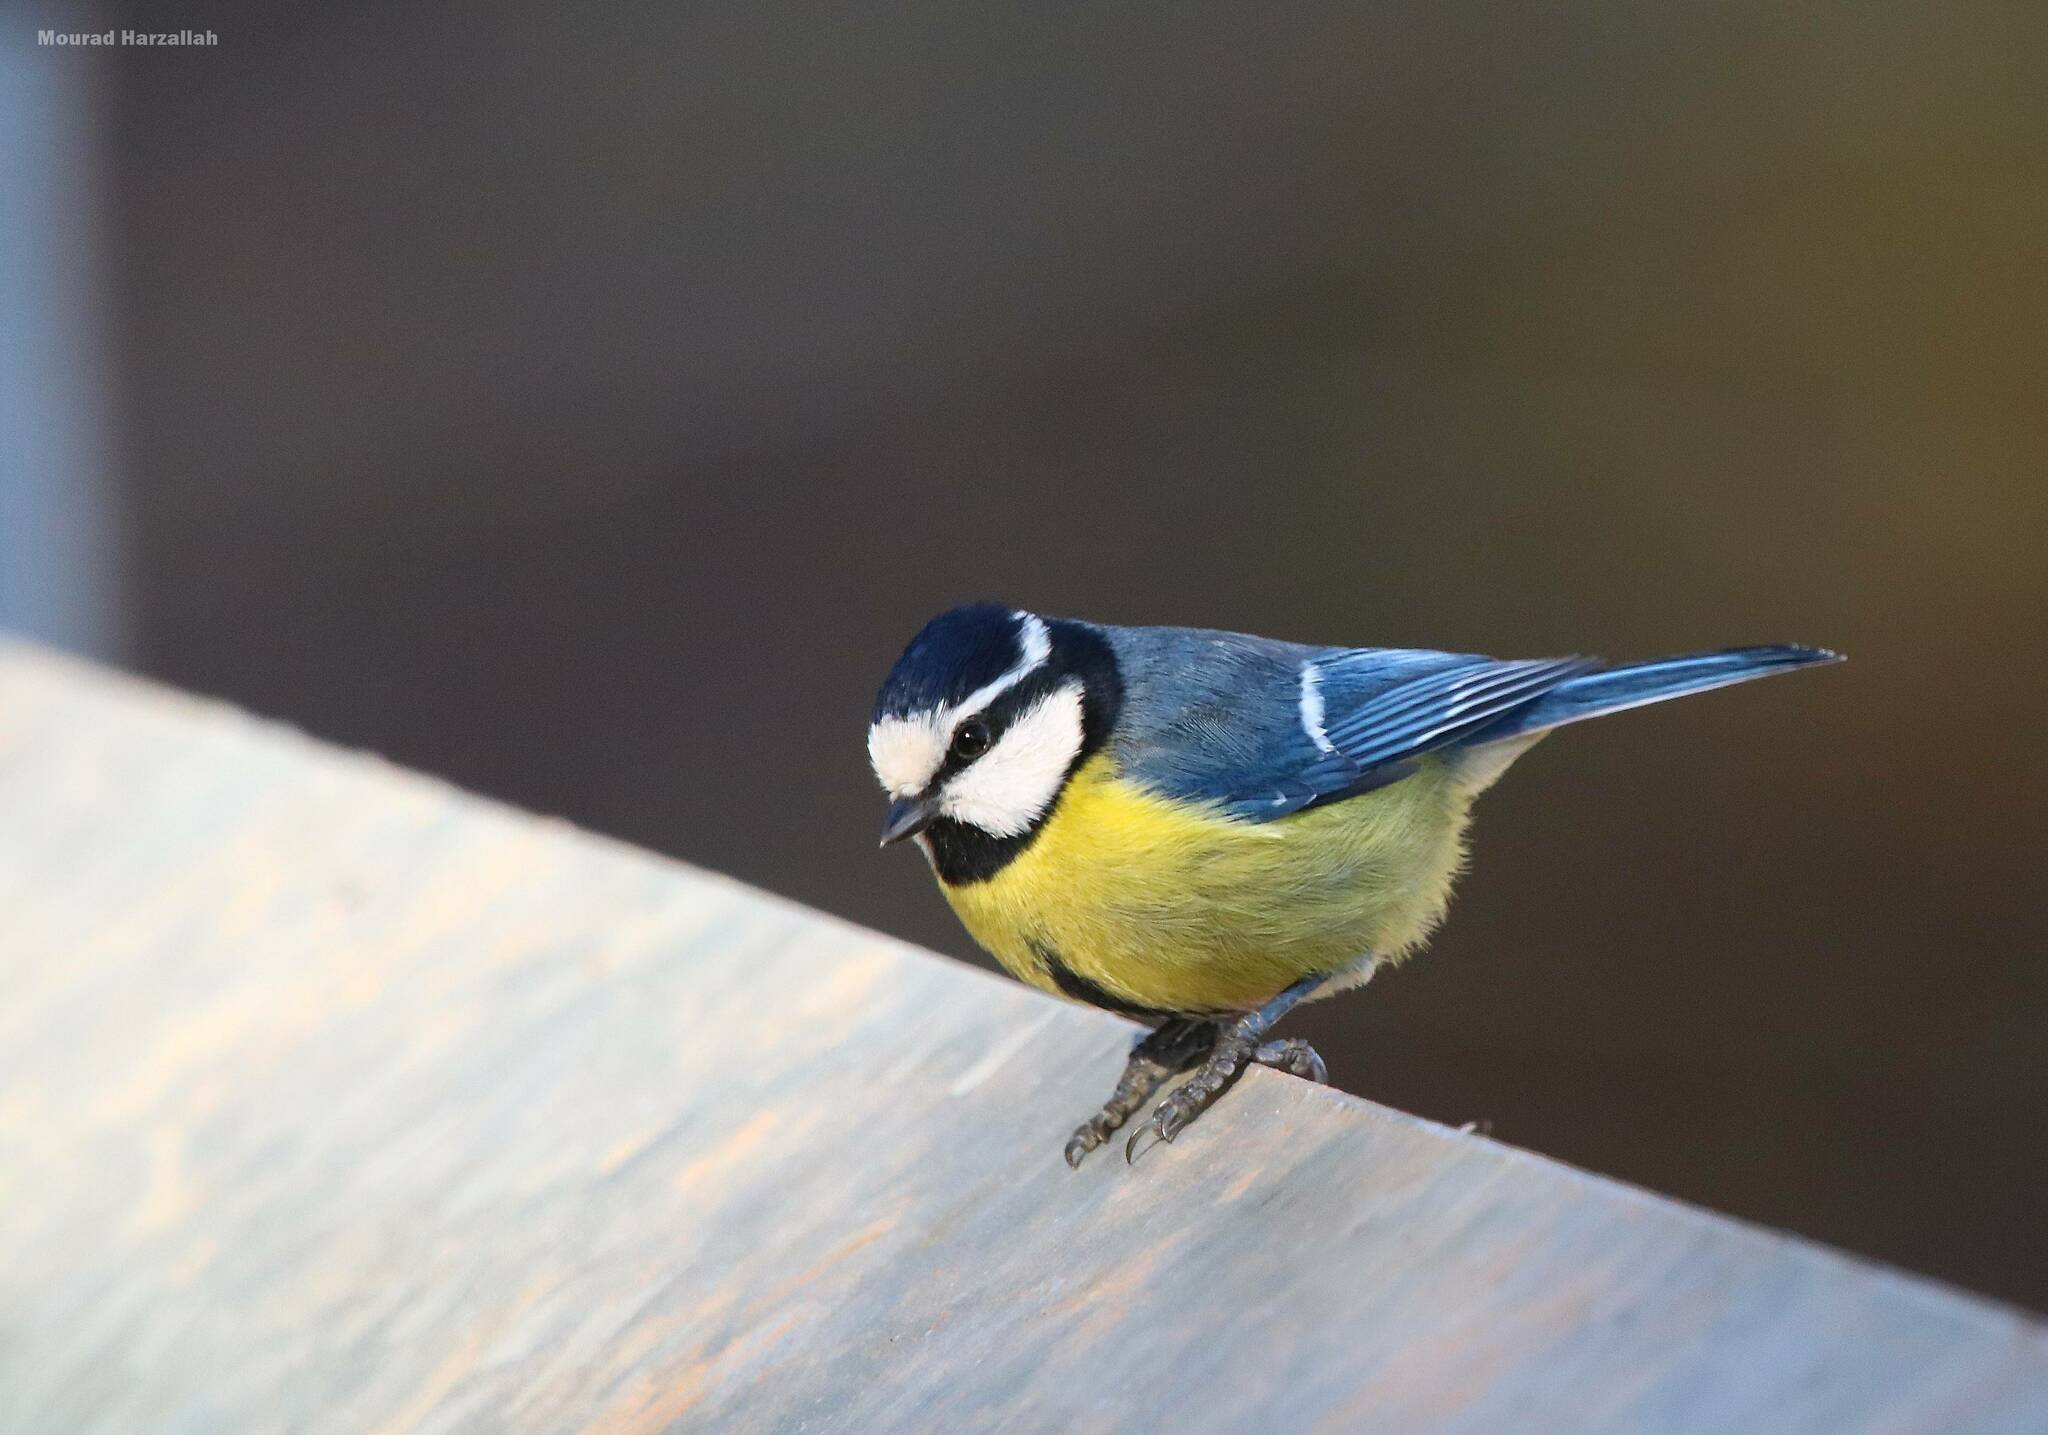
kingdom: Animalia
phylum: Chordata
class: Aves
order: Passeriformes
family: Paridae
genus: Cyanistes
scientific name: Cyanistes teneriffae
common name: African blue tit
